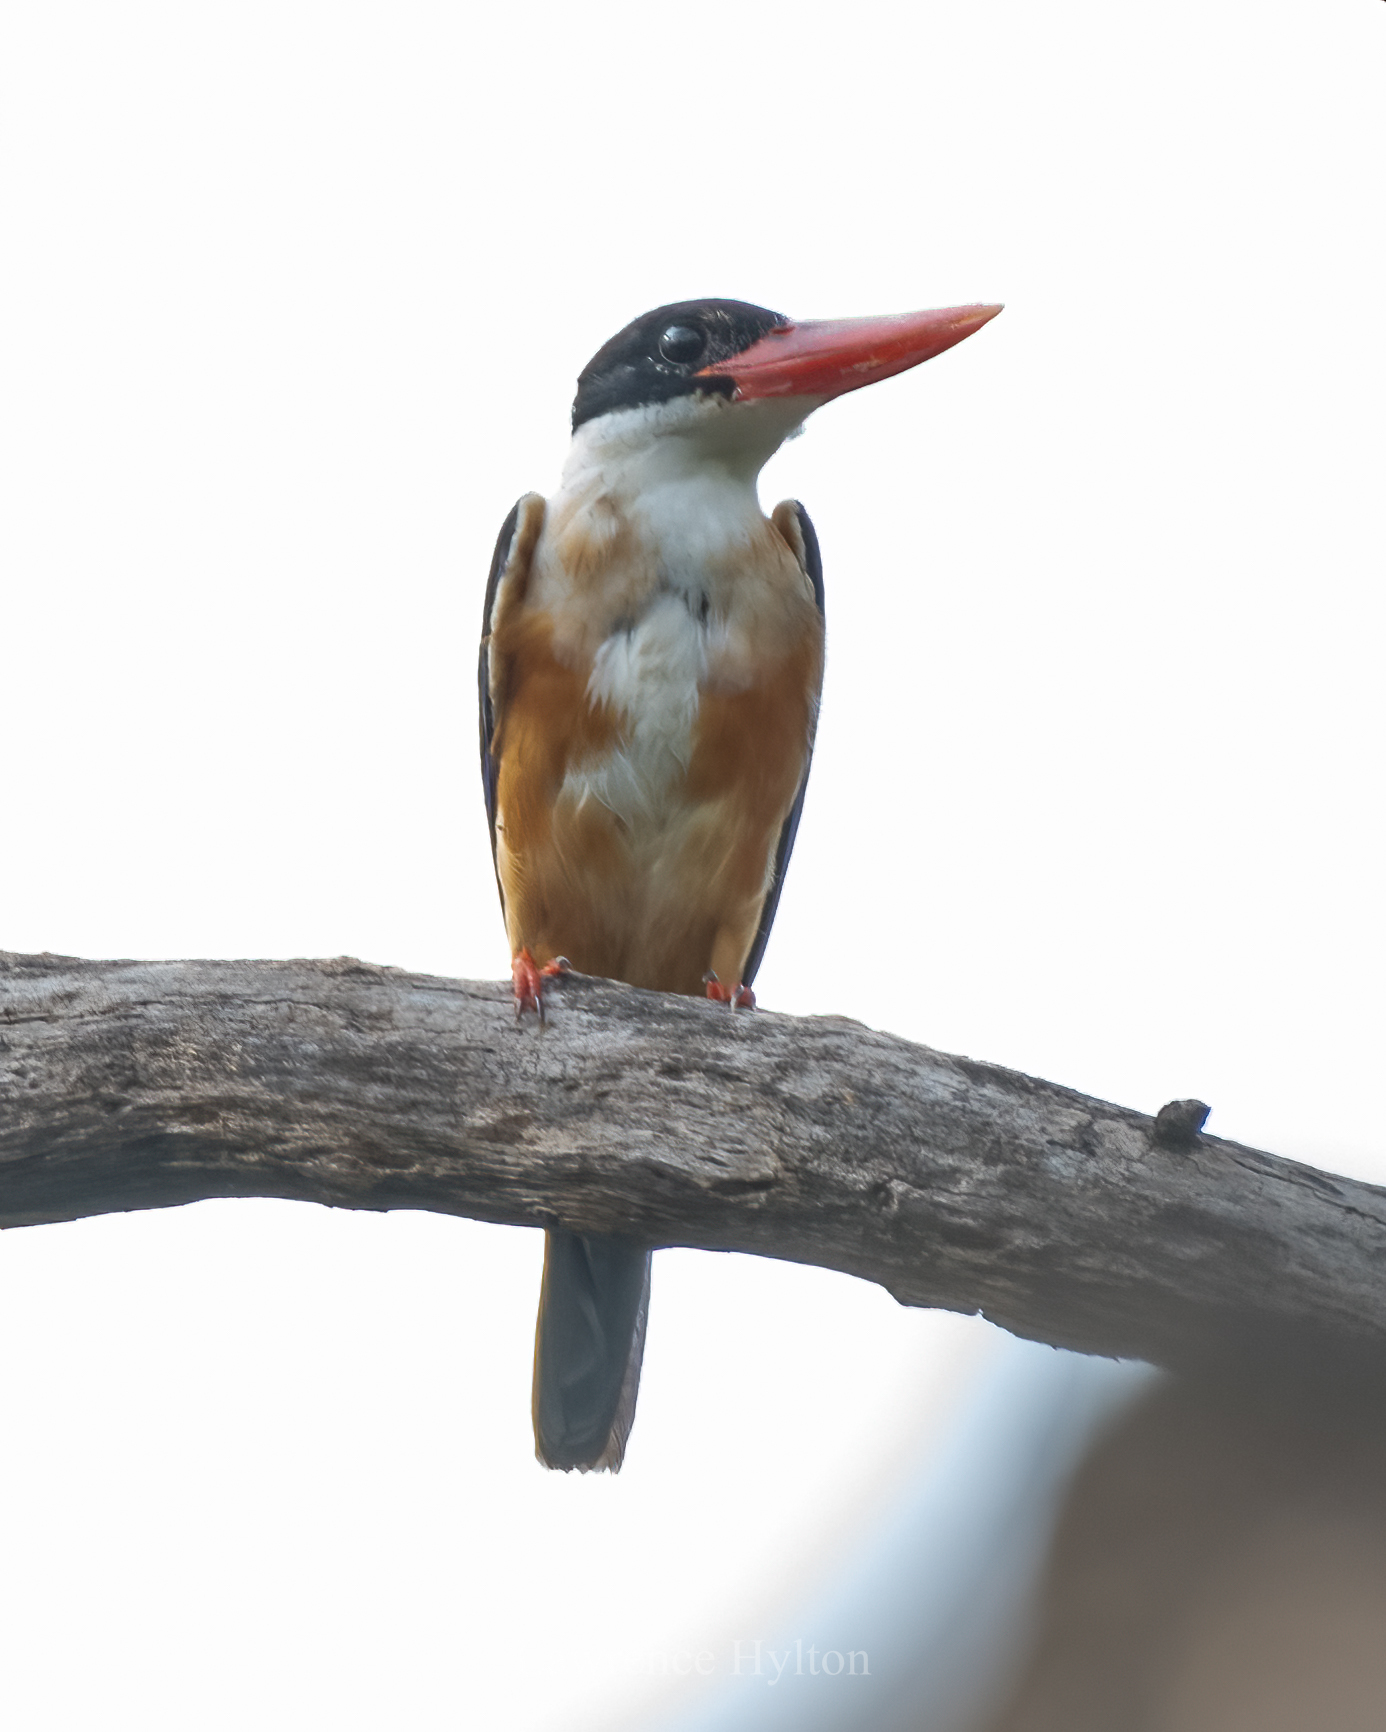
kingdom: Animalia
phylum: Chordata
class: Aves
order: Coraciiformes
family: Alcedinidae
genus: Halcyon
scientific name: Halcyon pileata
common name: Black-capped kingfisher
